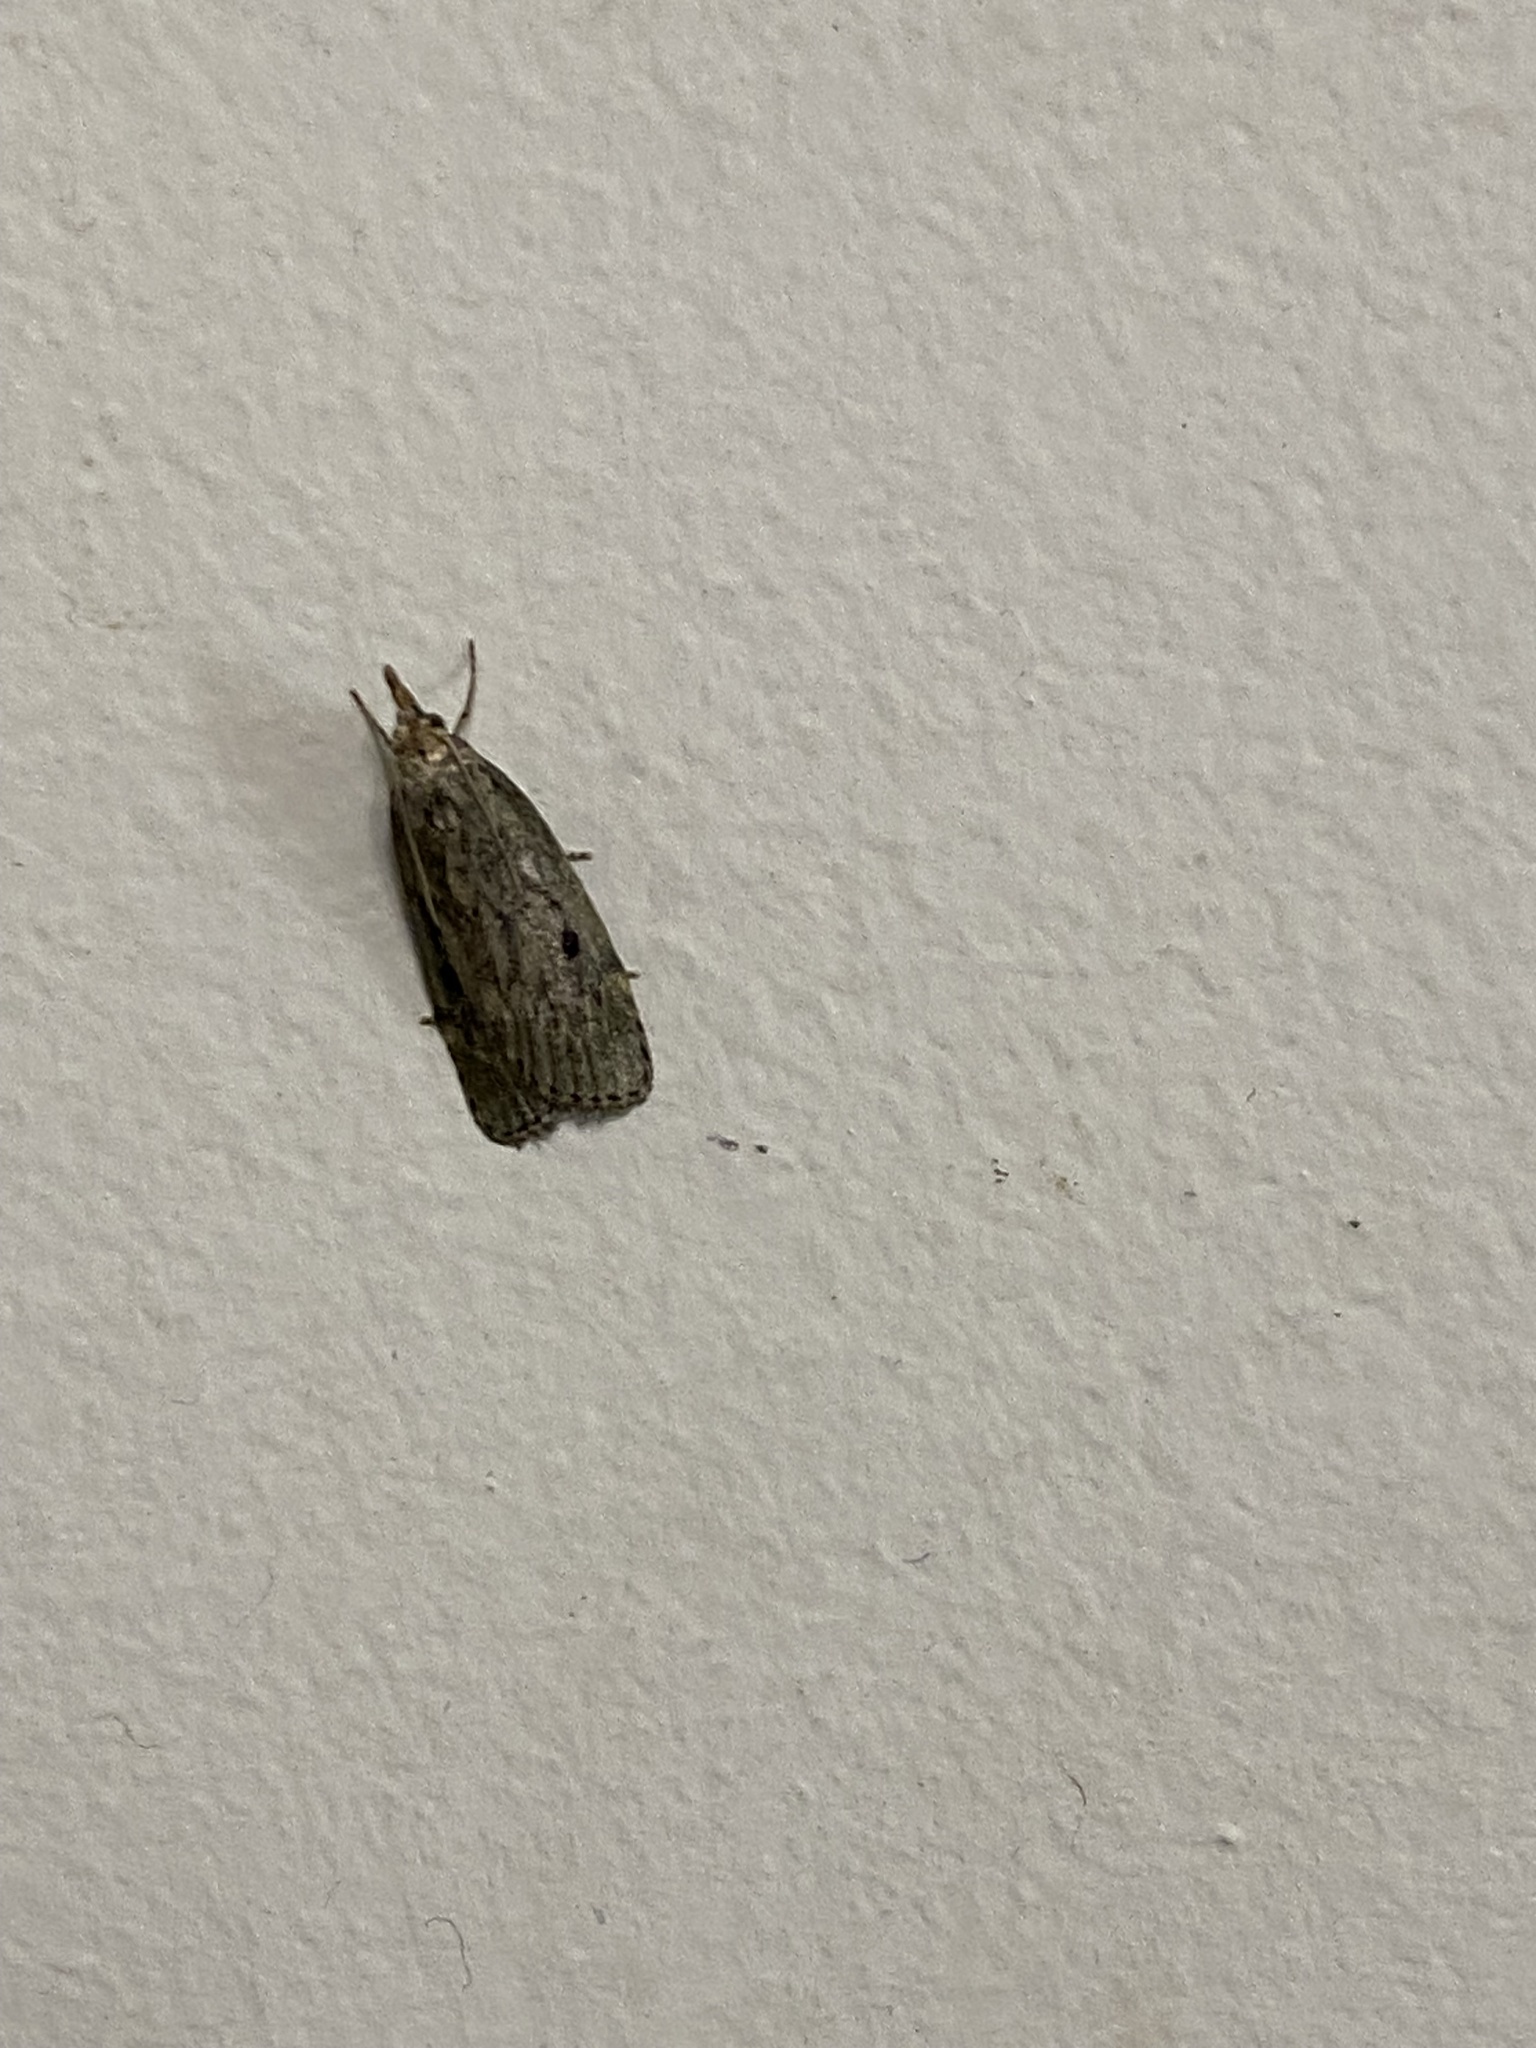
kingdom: Animalia
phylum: Arthropoda
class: Insecta
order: Lepidoptera
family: Pyralidae
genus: Aphomia
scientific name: Aphomia sociella
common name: Bee moth
